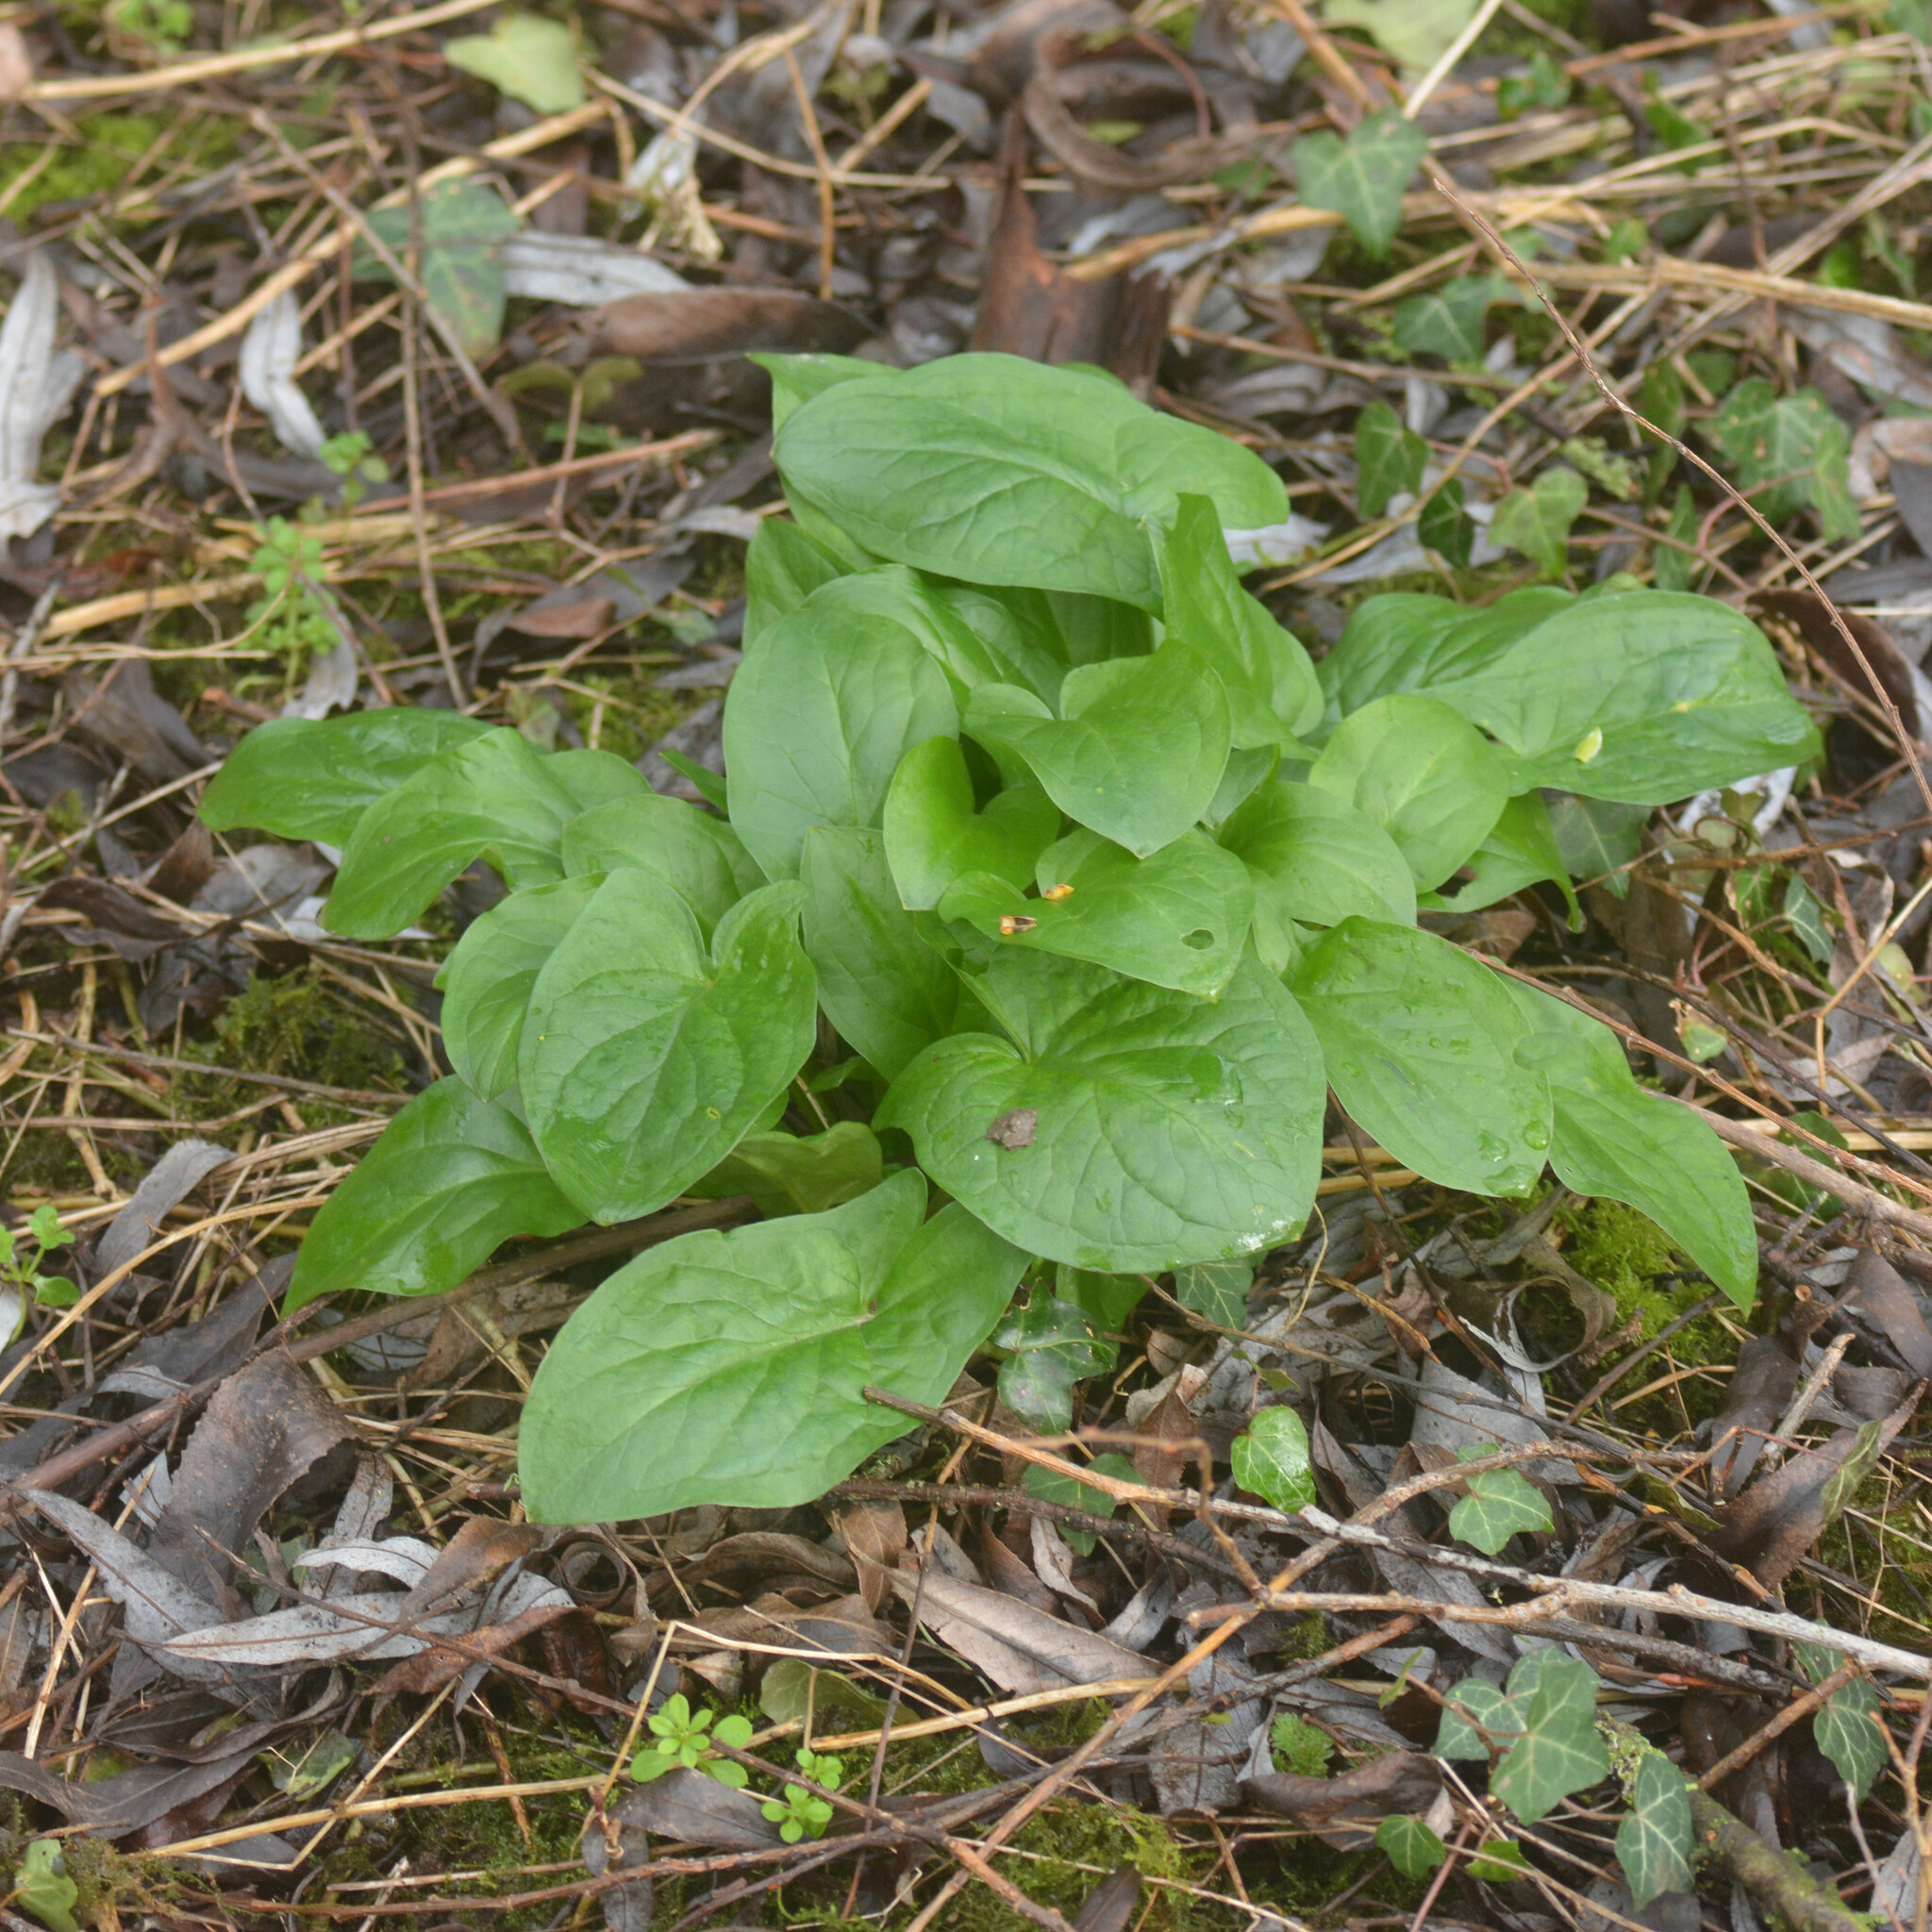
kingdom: Plantae
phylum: Tracheophyta
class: Liliopsida
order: Alismatales
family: Araceae
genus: Arum
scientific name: Arum maculatum
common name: Lords-and-ladies
